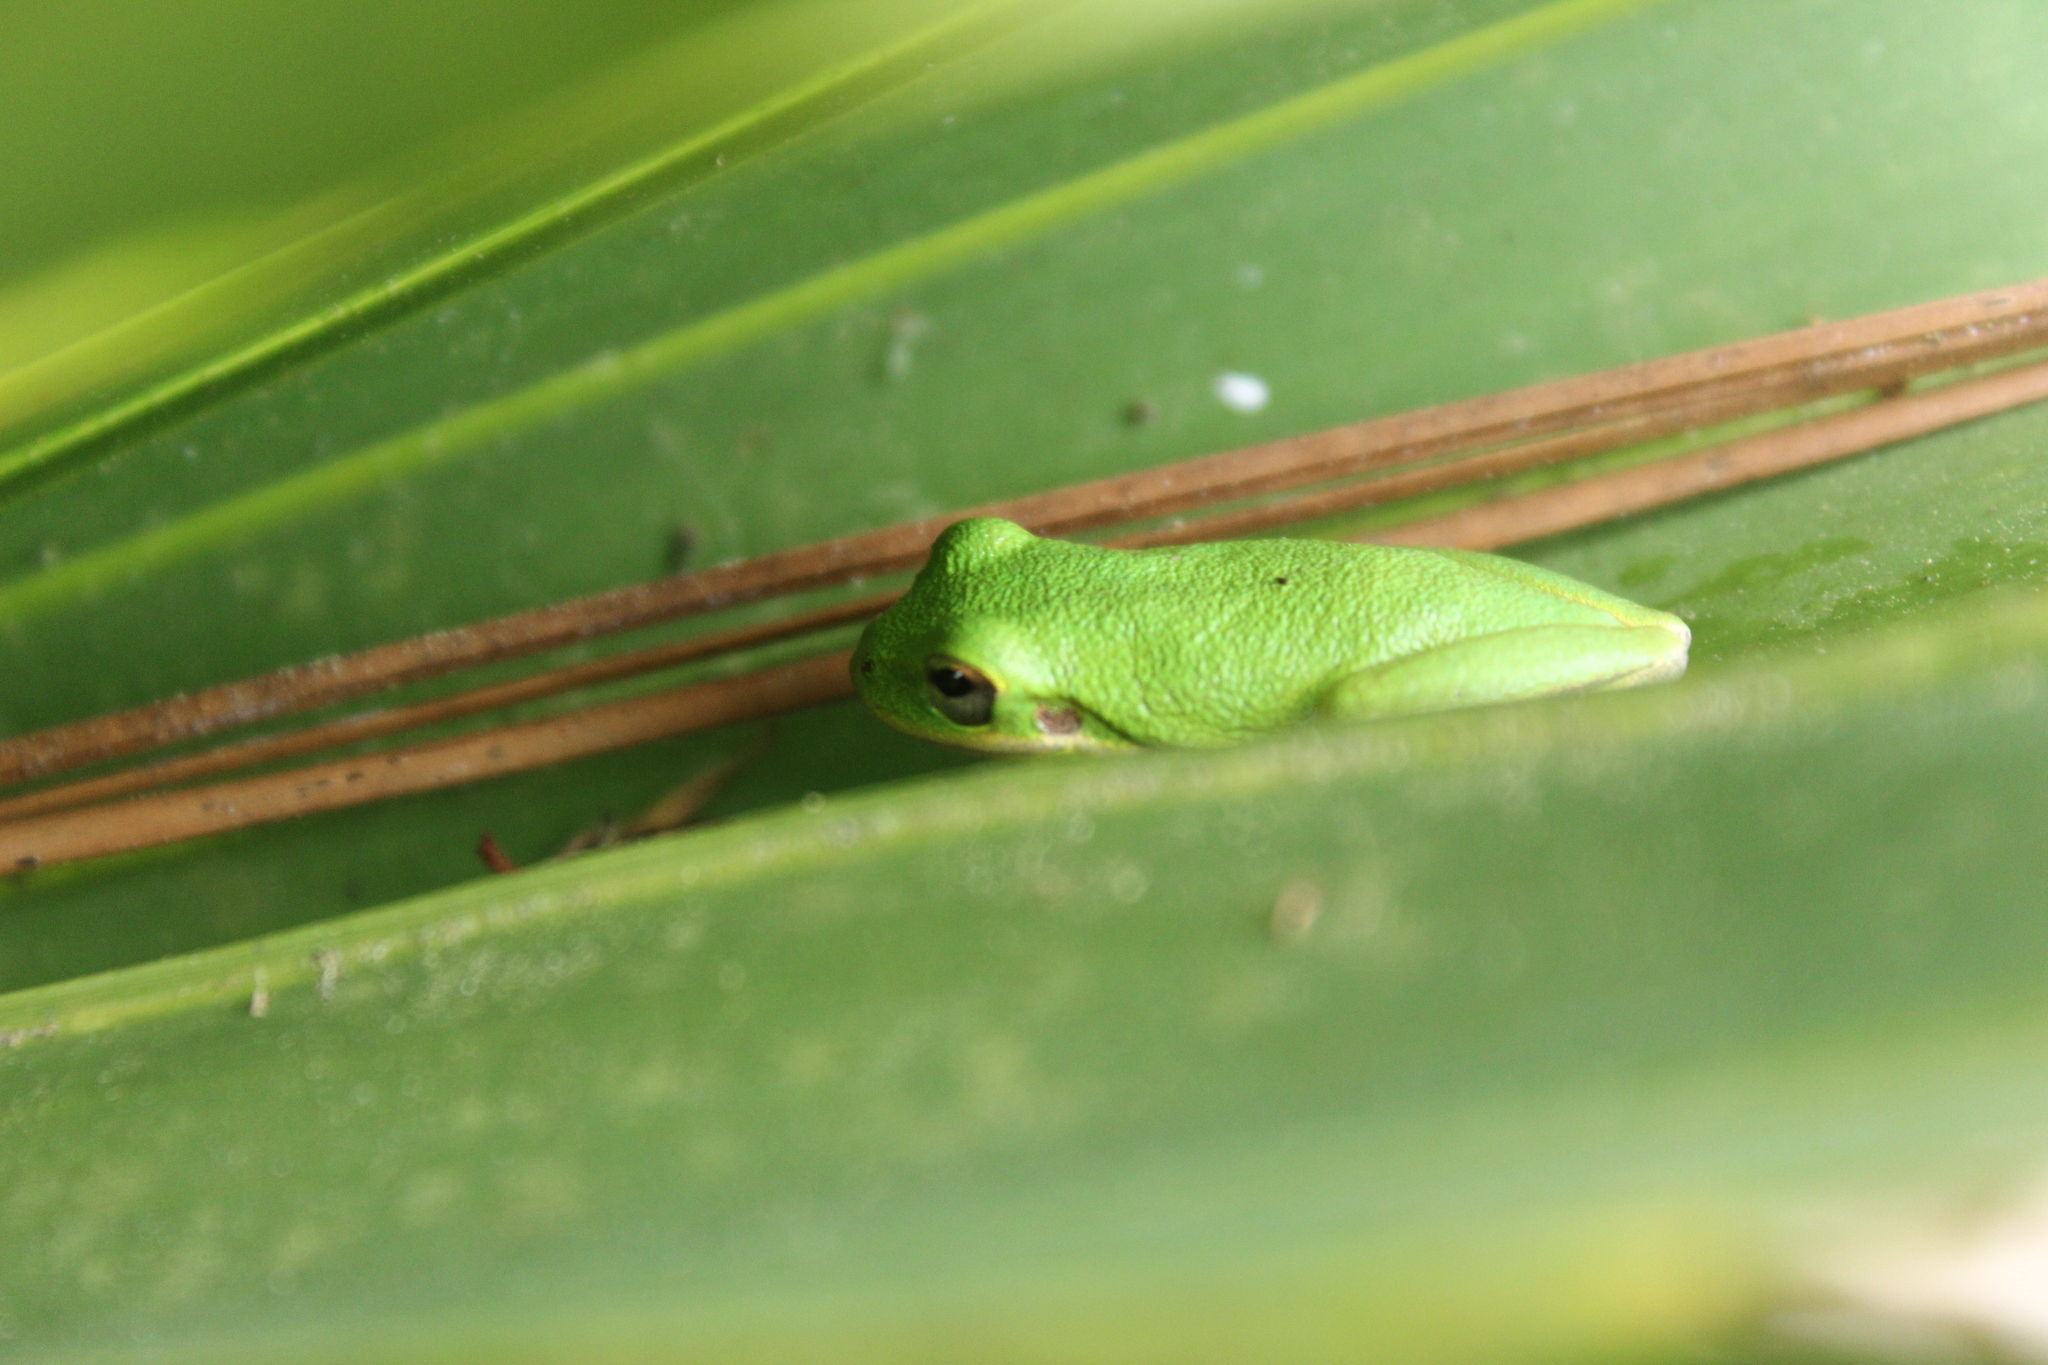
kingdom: Animalia
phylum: Chordata
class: Amphibia
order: Anura
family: Hylidae
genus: Dryophytes
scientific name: Dryophytes squirellus
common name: Squirrel treefrog
